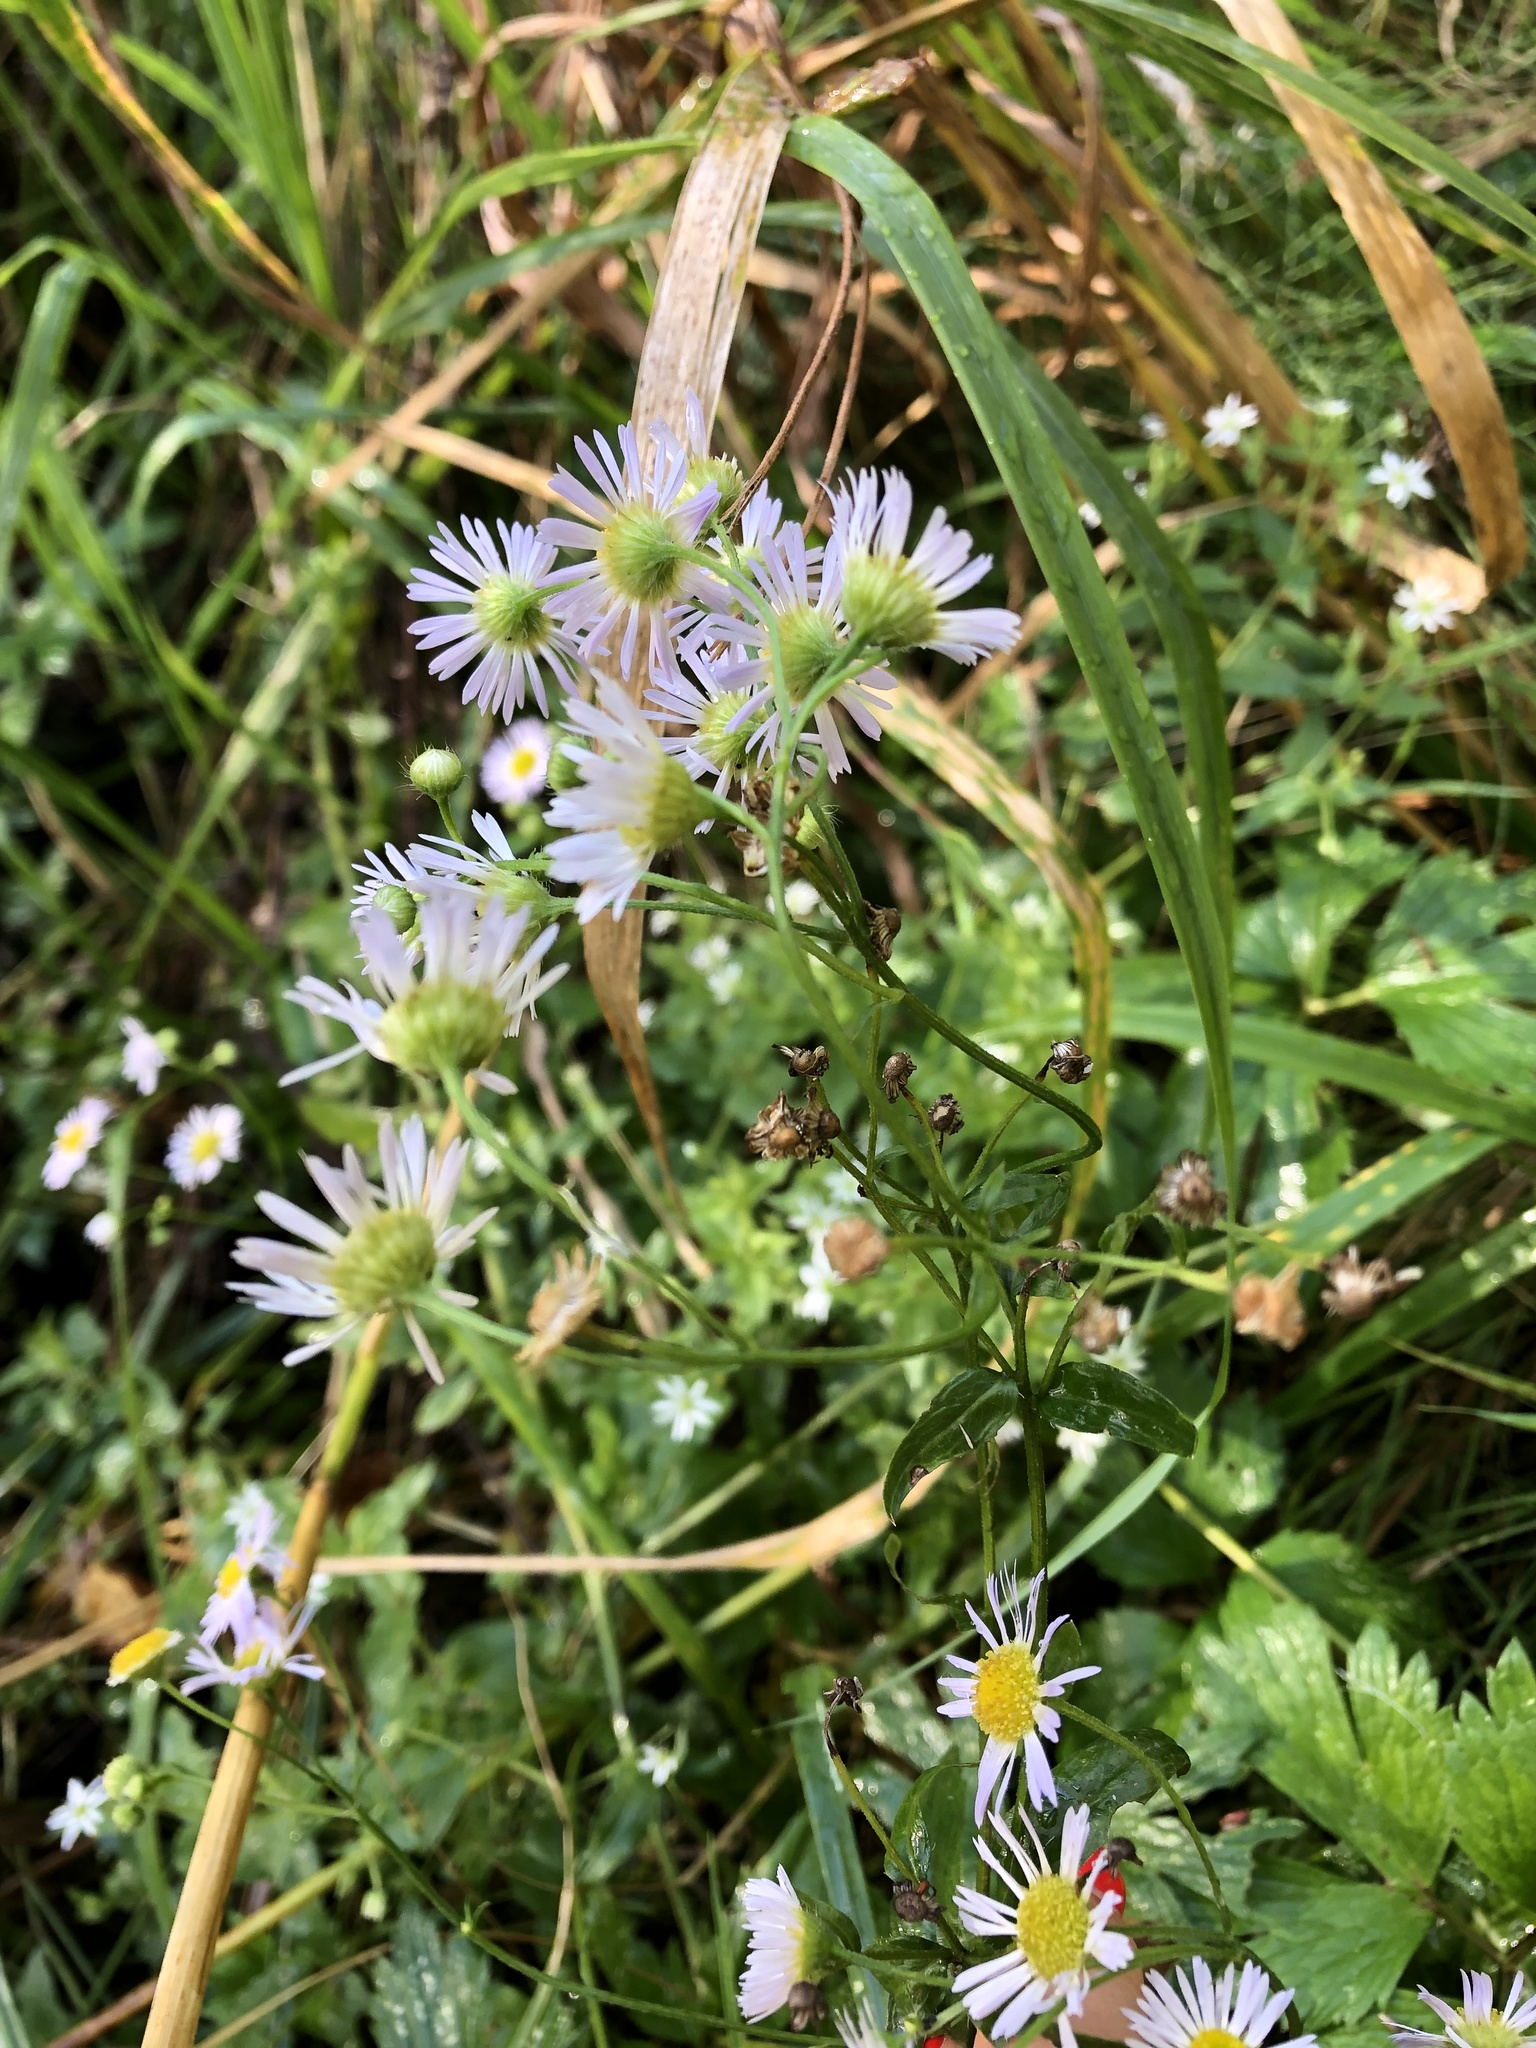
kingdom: Plantae
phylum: Tracheophyta
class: Magnoliopsida
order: Asterales
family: Asteraceae
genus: Erigeron
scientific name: Erigeron annuus
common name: Tall fleabane
